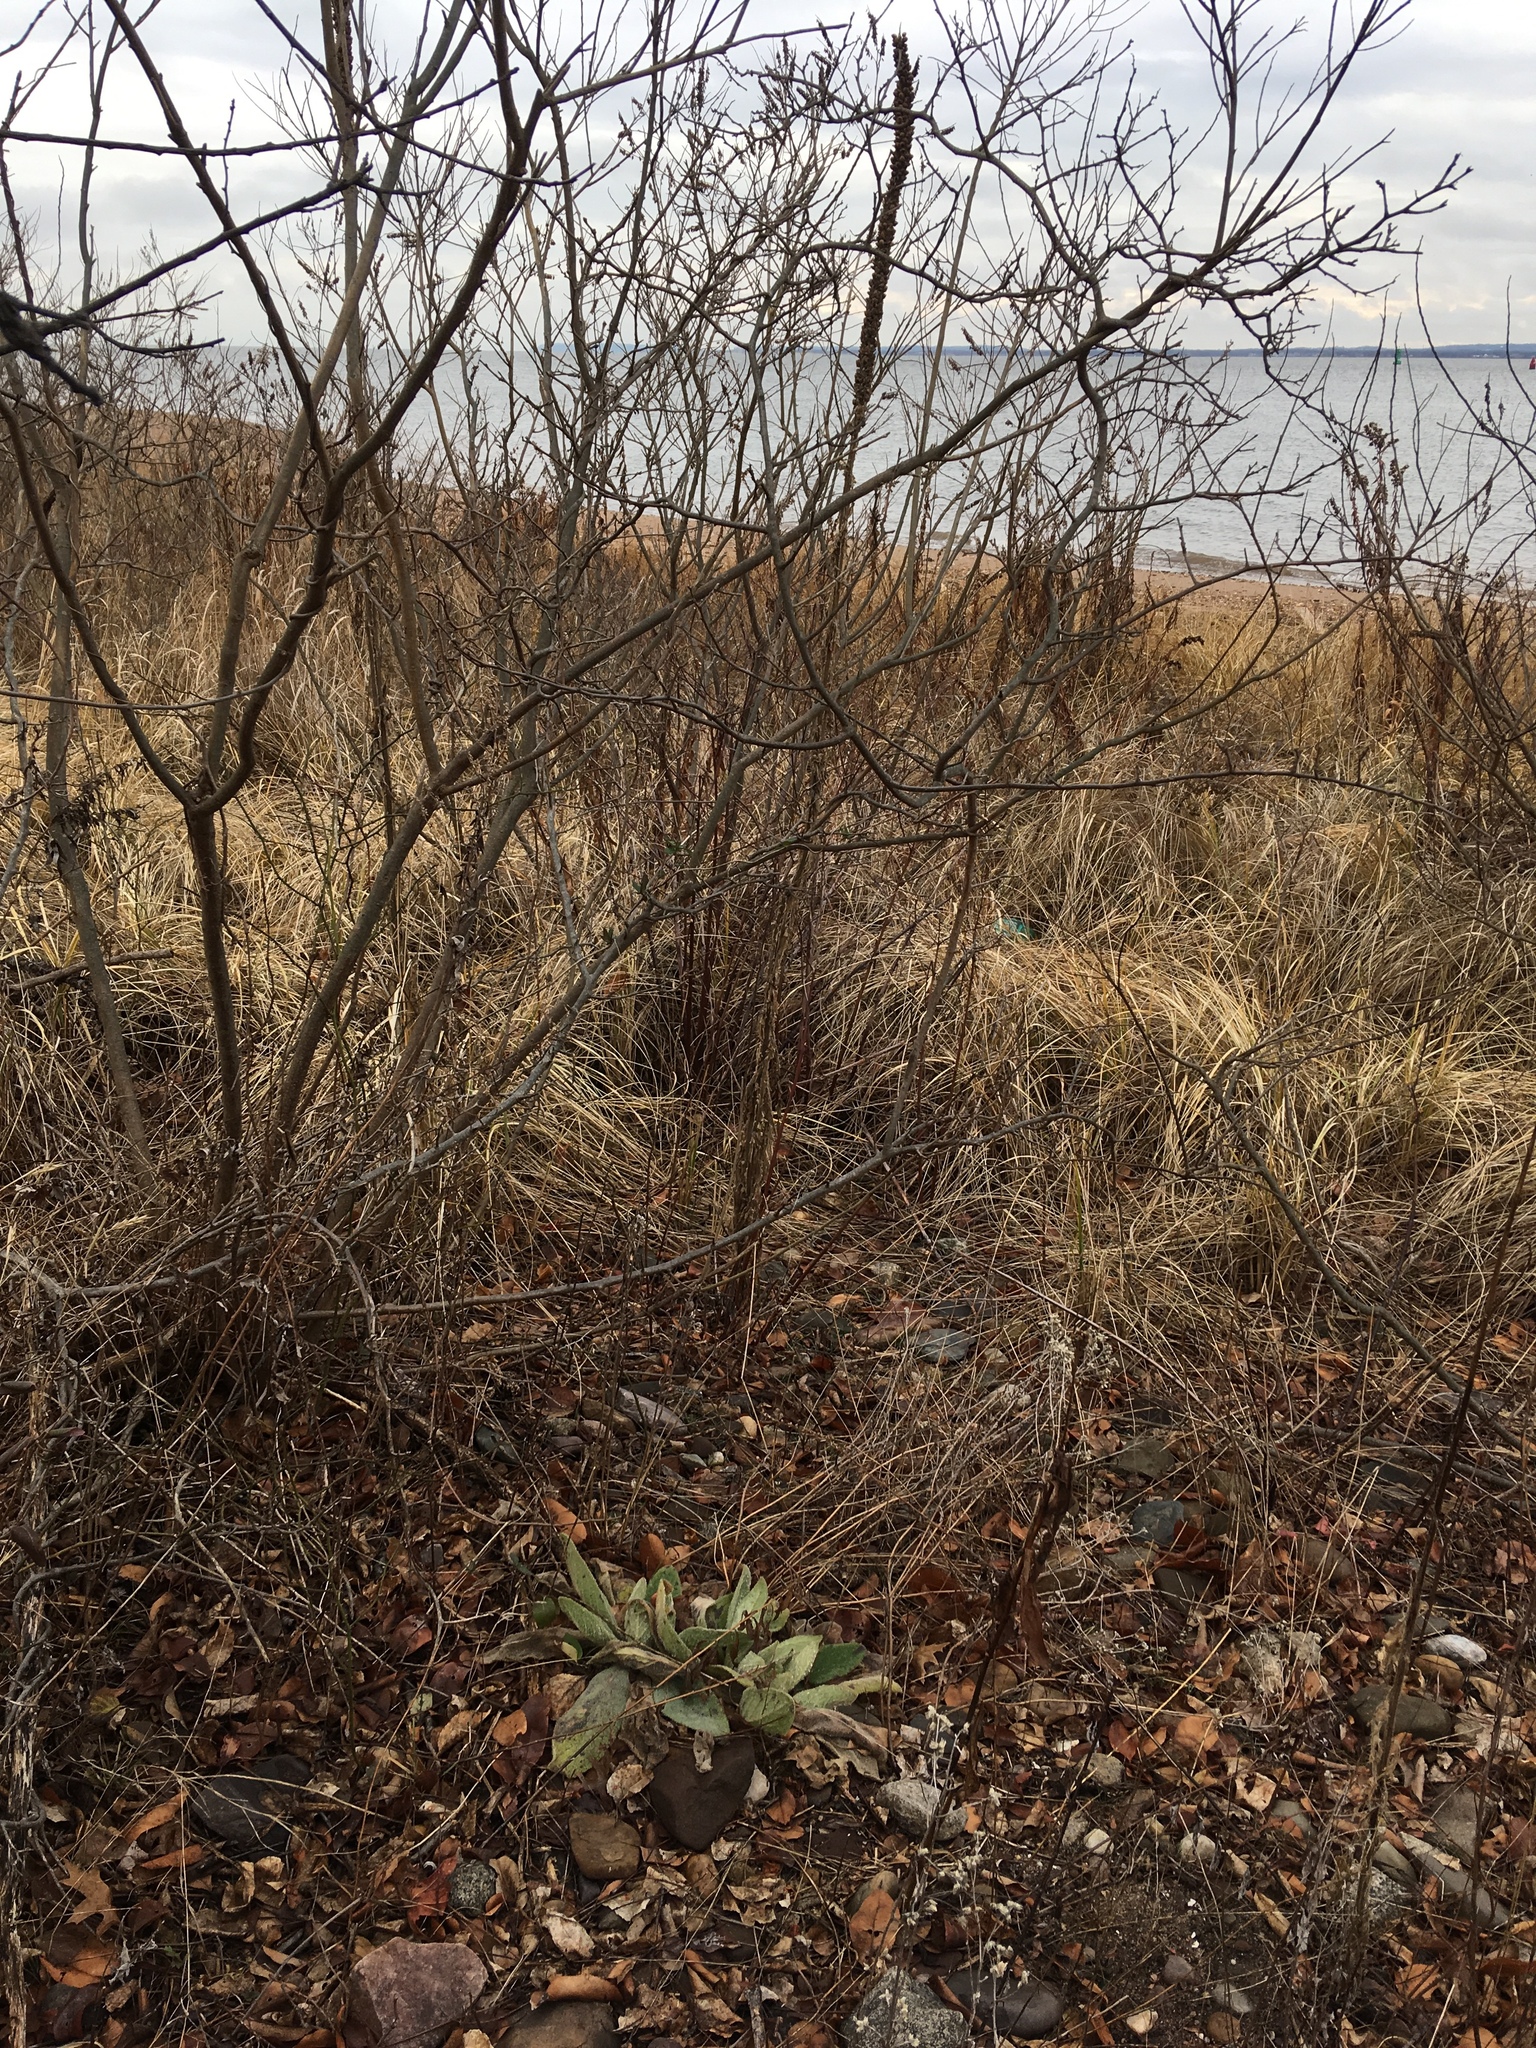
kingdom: Plantae
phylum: Tracheophyta
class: Magnoliopsida
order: Lamiales
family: Scrophulariaceae
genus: Verbascum
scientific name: Verbascum thapsus
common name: Common mullein
